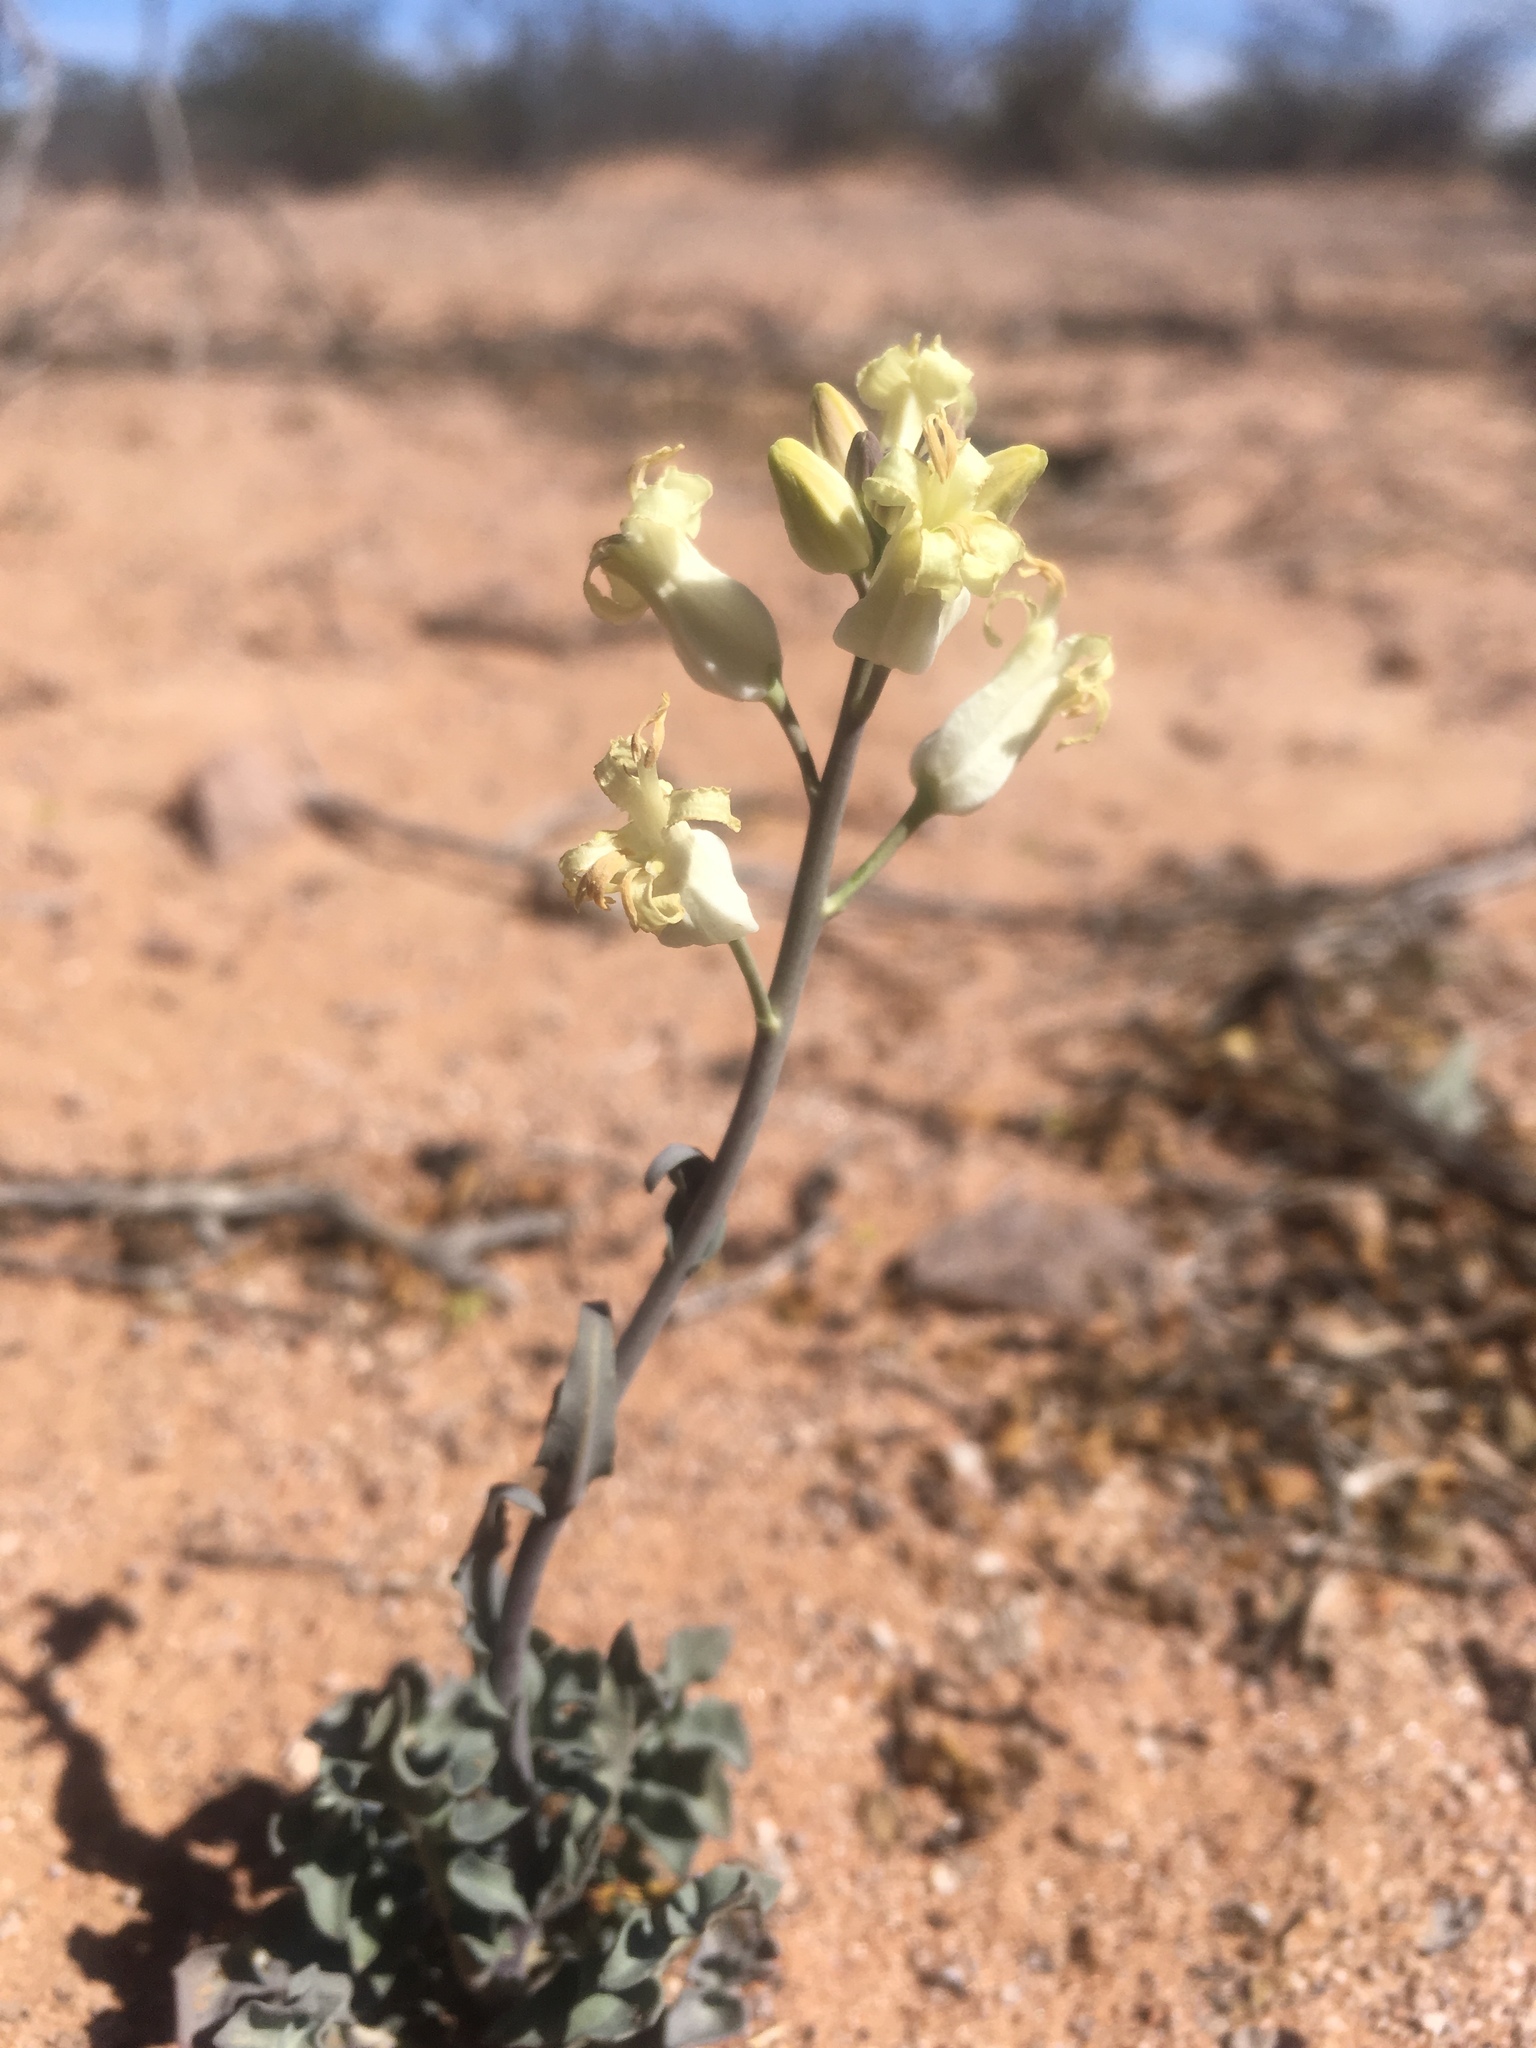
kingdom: Plantae
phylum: Tracheophyta
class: Magnoliopsida
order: Brassicales
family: Brassicaceae
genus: Streptanthus
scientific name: Streptanthus carinatus
